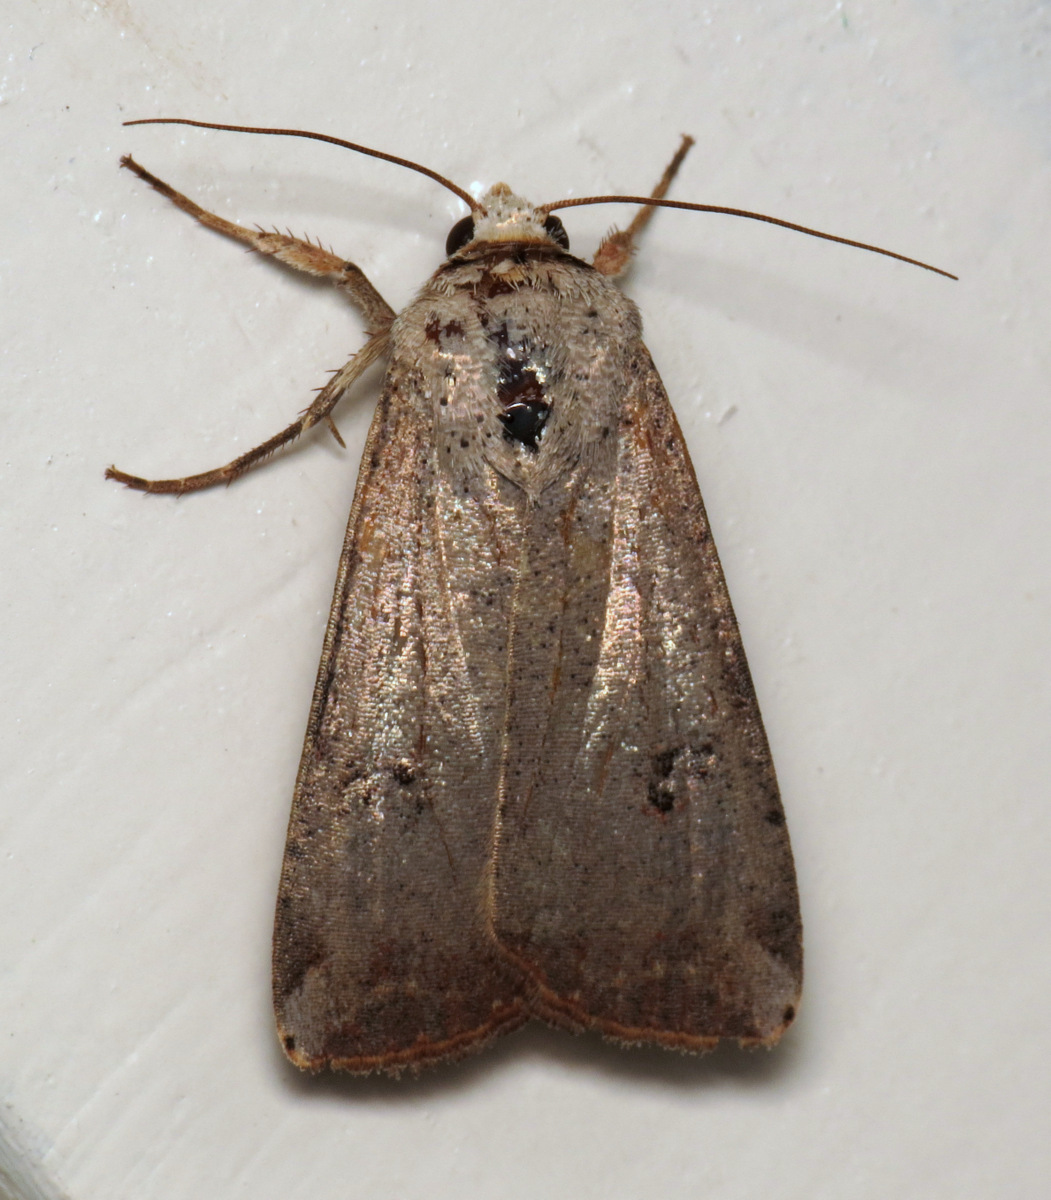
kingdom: Animalia
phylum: Arthropoda
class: Insecta
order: Lepidoptera
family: Noctuidae
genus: Anicla
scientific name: Anicla infecta
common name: Green cutworm
